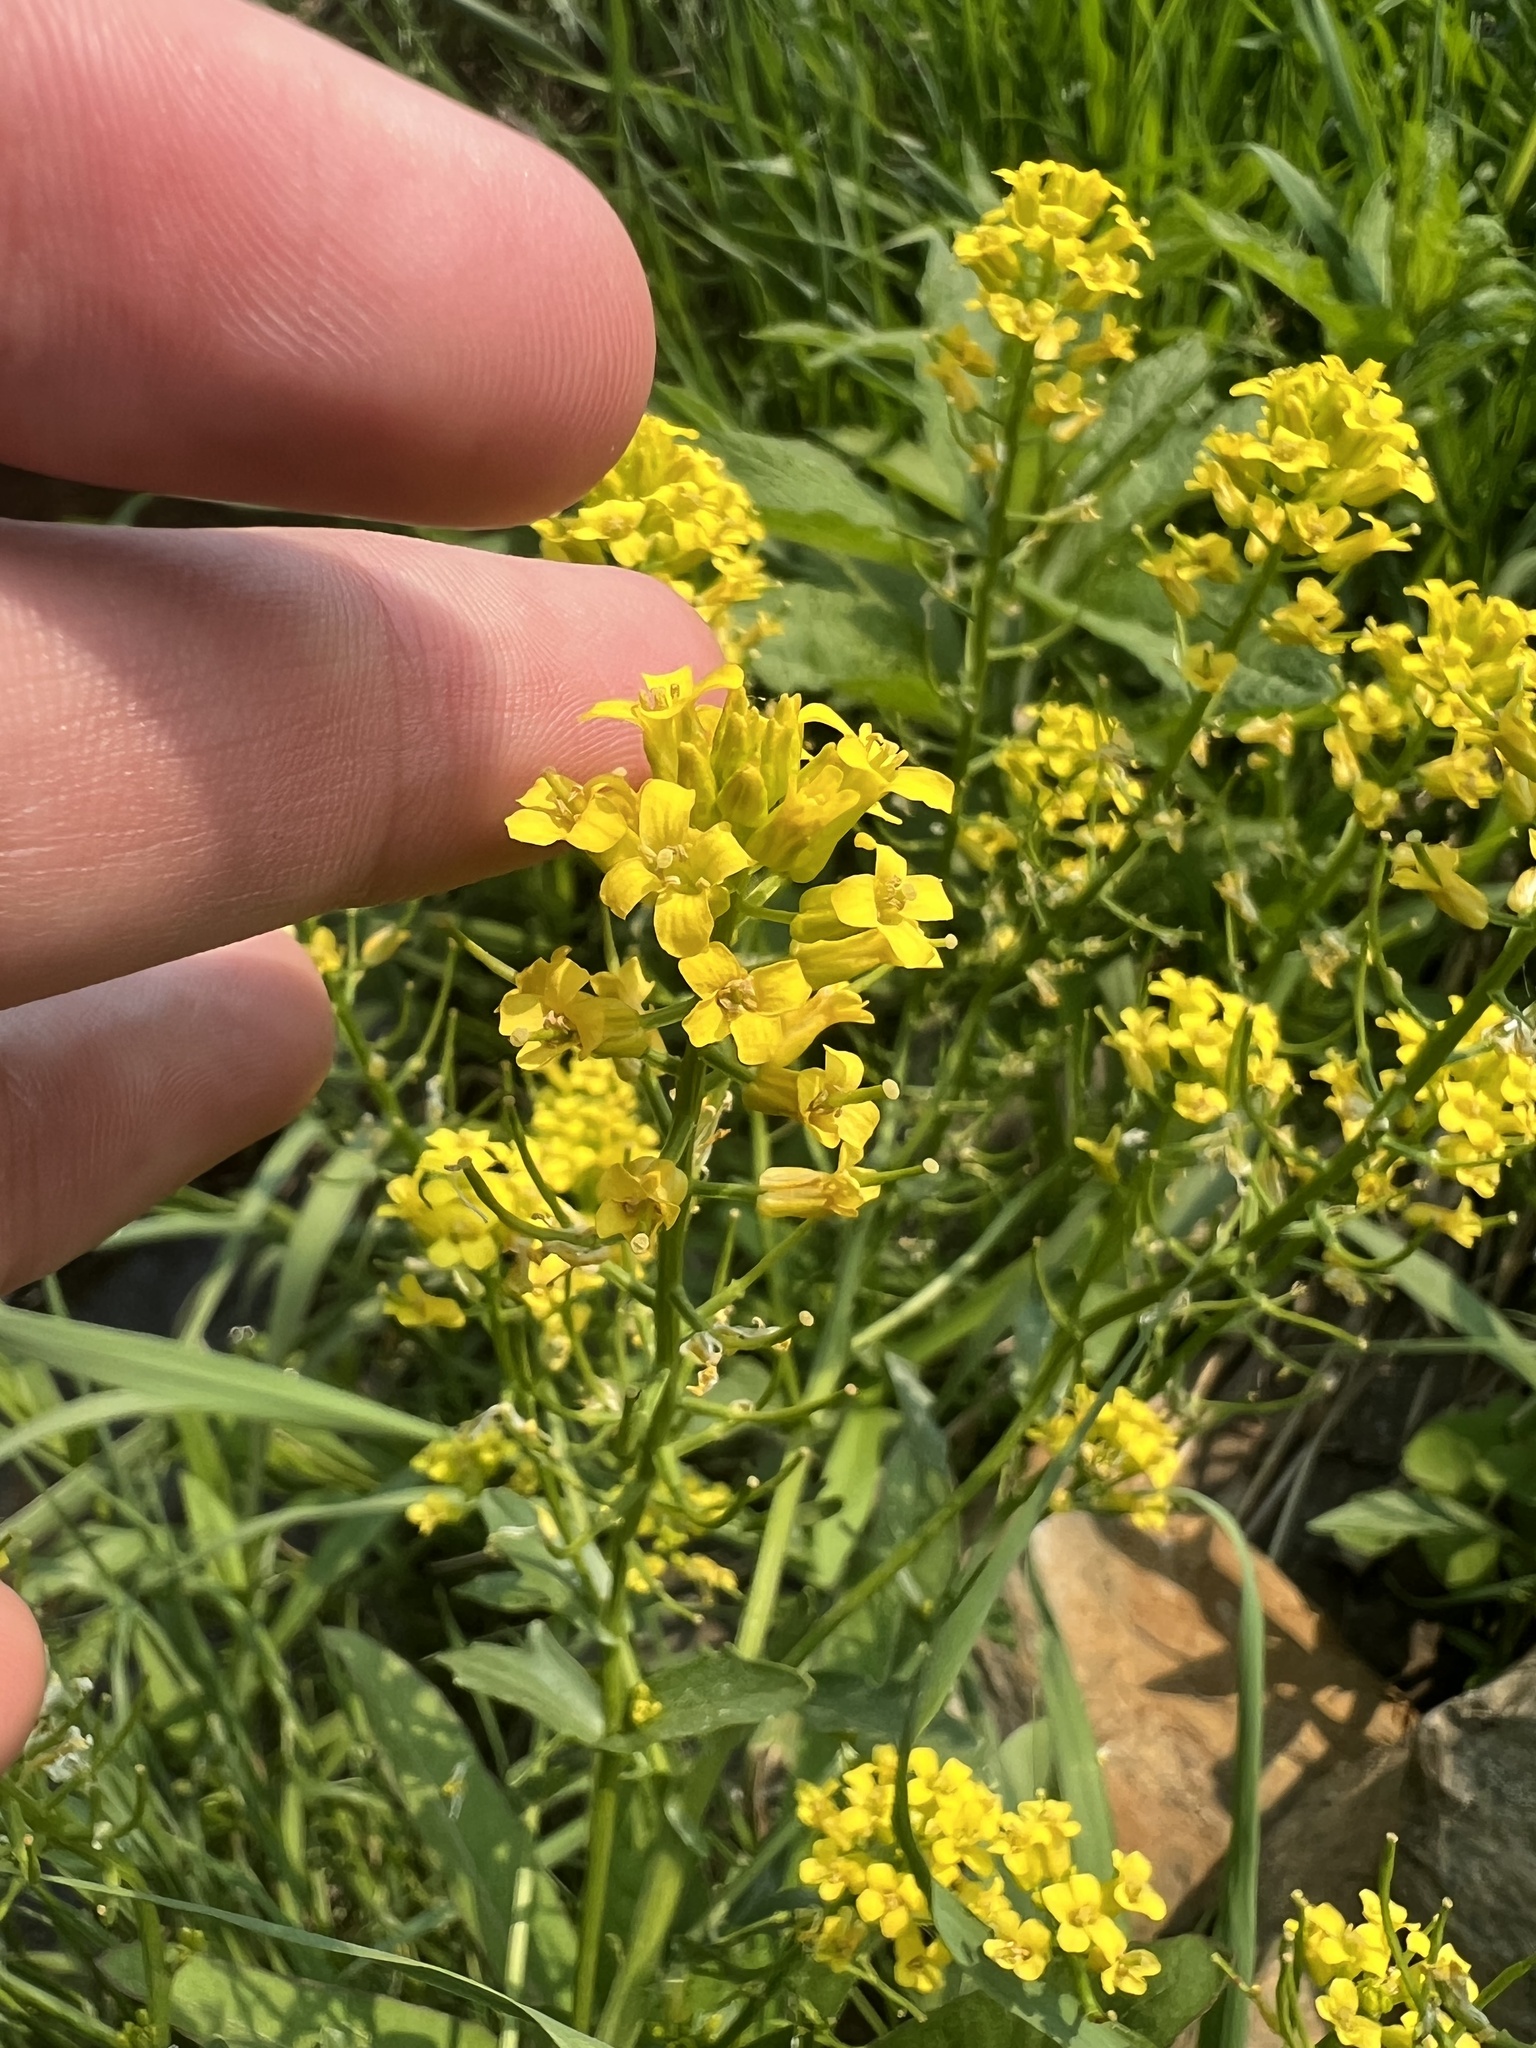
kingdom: Plantae
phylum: Tracheophyta
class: Magnoliopsida
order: Brassicales
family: Brassicaceae
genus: Barbarea
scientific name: Barbarea vulgaris
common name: Cressy-greens
